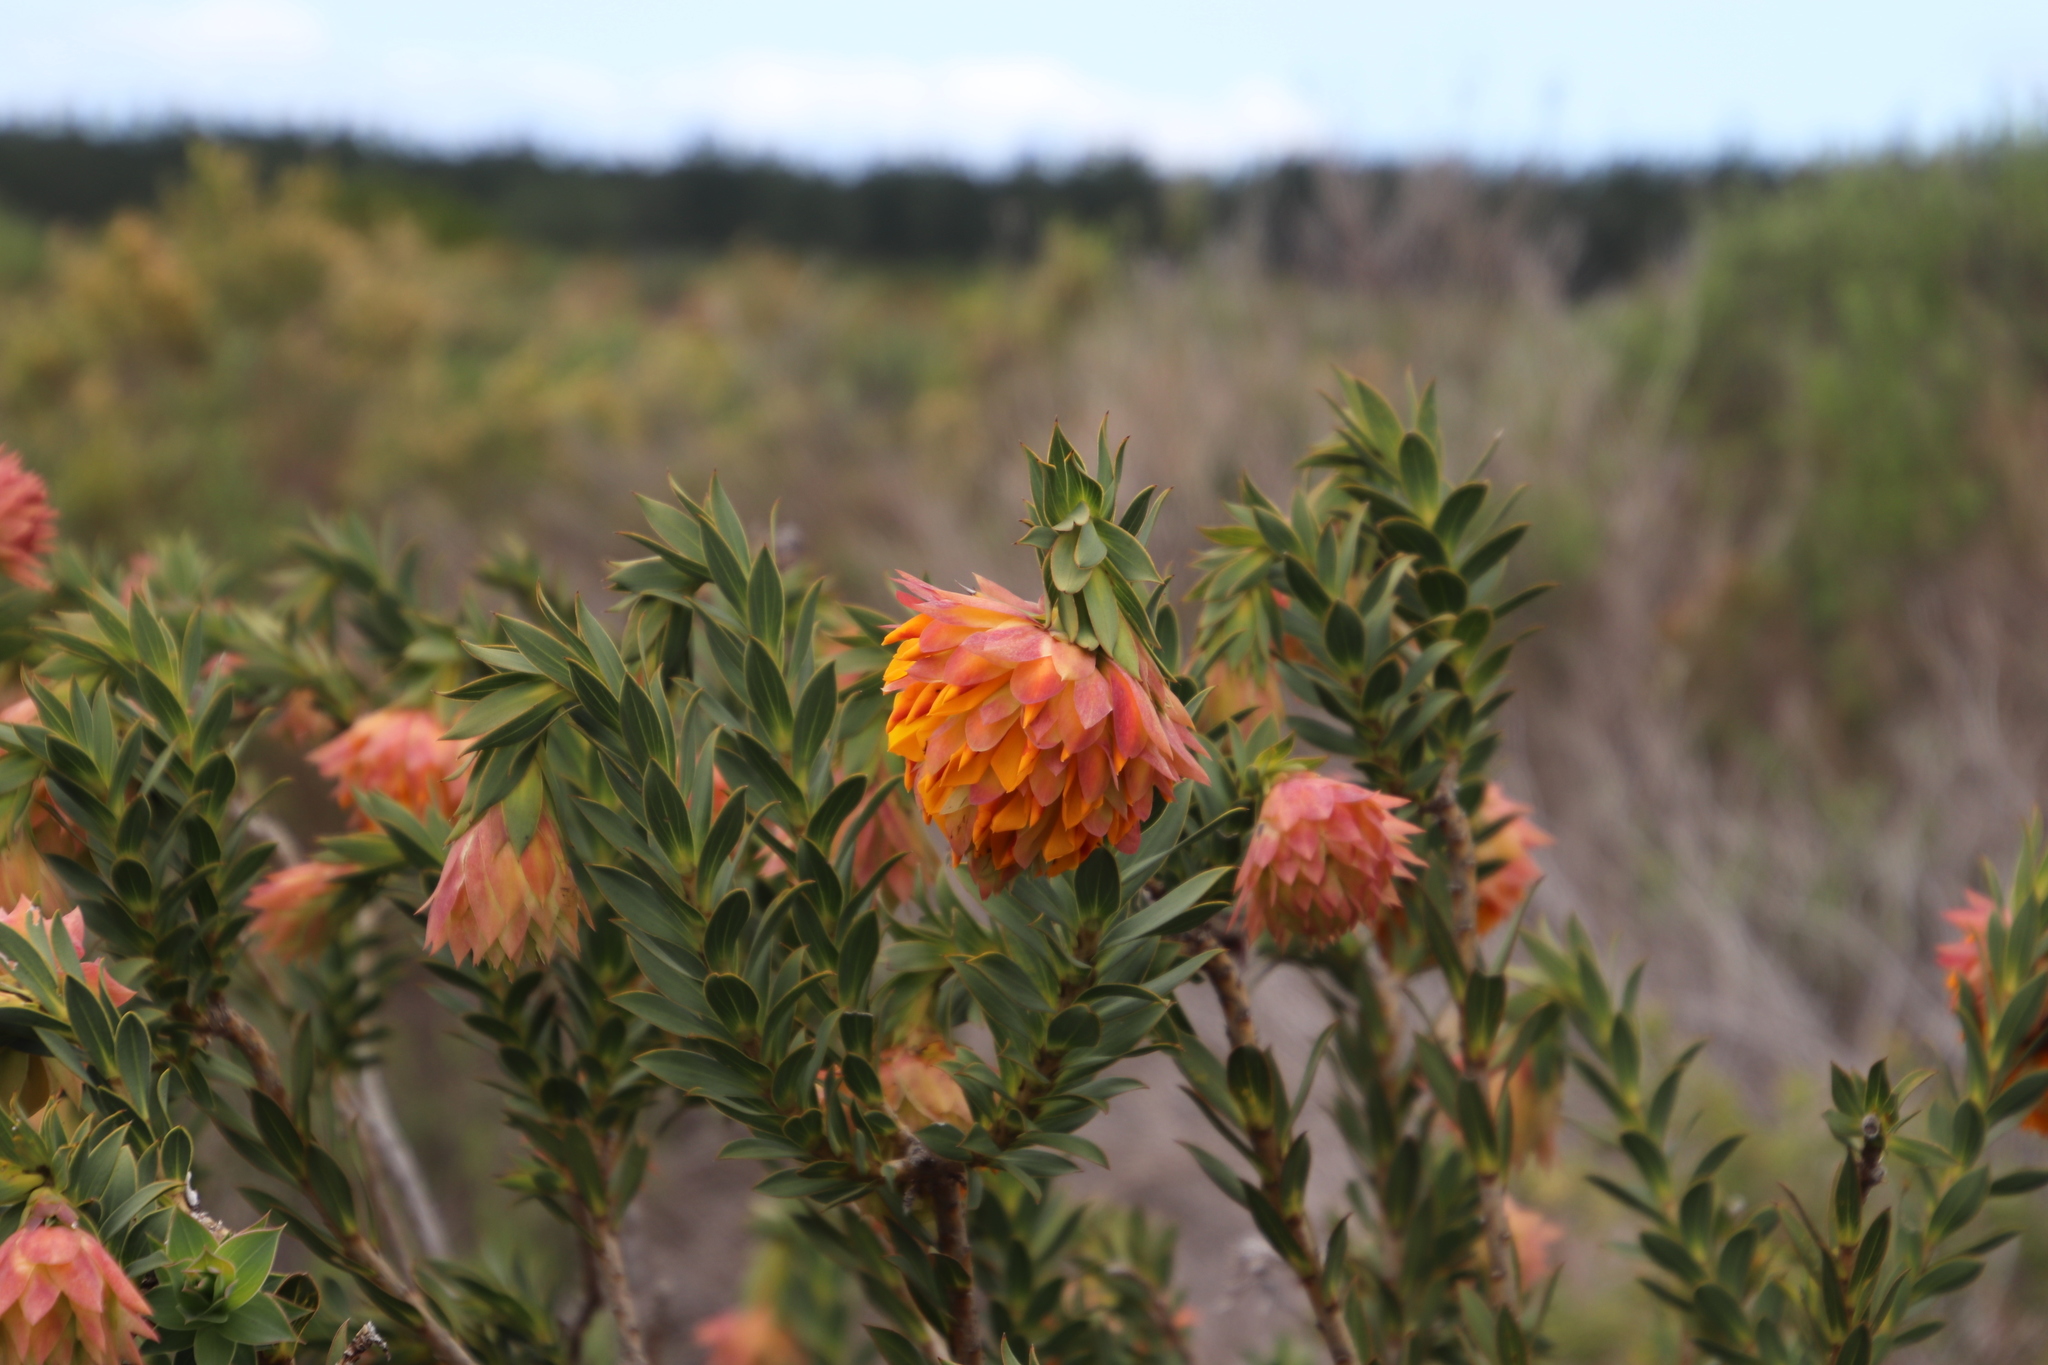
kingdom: Plantae
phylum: Tracheophyta
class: Magnoliopsida
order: Fabales
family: Fabaceae
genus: Liparia
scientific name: Liparia splendens
